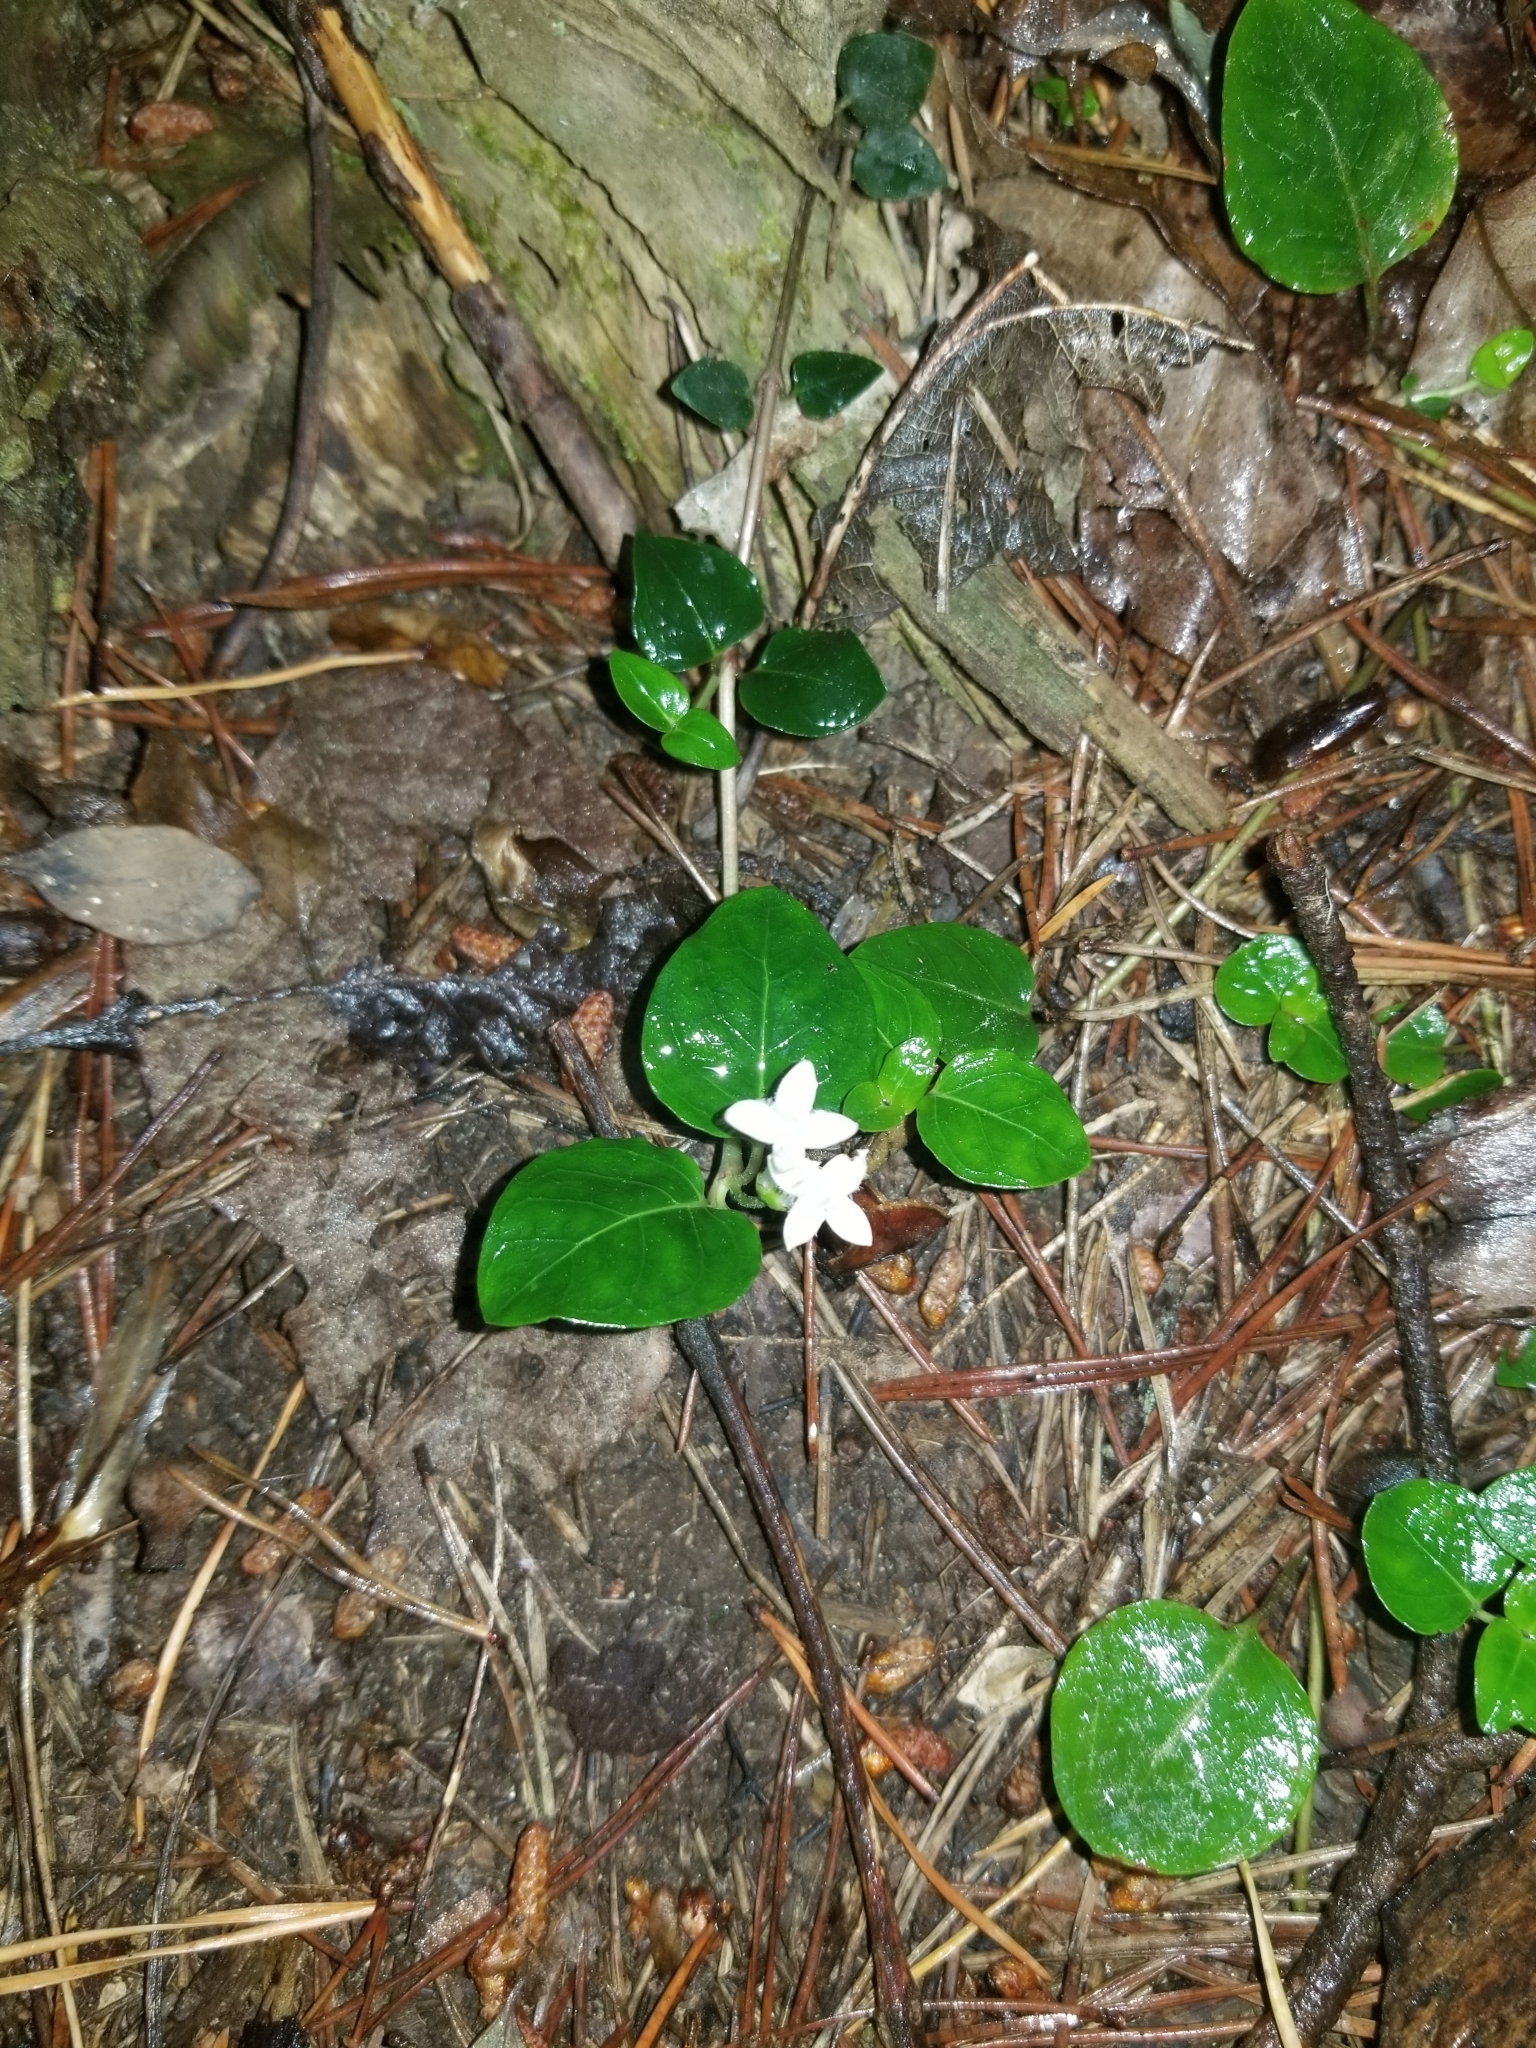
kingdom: Plantae
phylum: Tracheophyta
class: Magnoliopsida
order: Gentianales
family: Rubiaceae
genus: Mitchella
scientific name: Mitchella repens
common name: Partridge-berry
